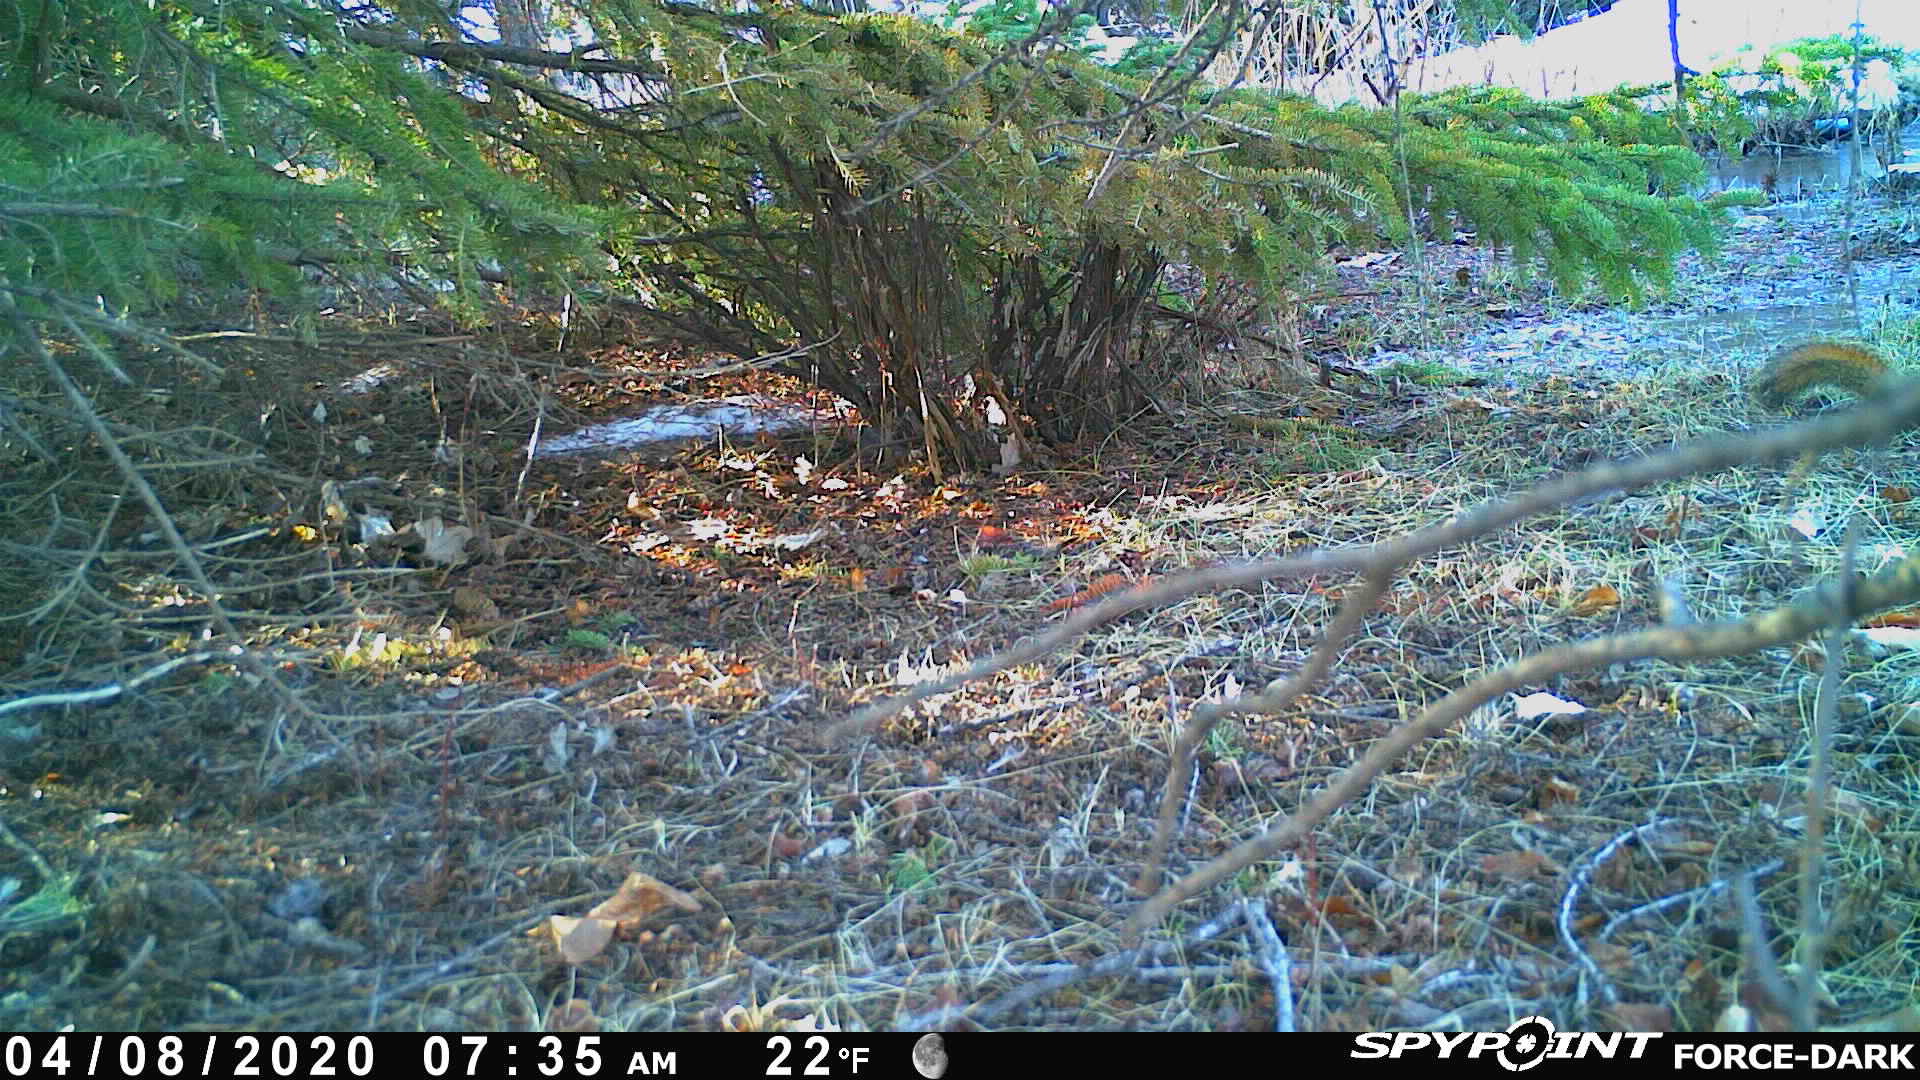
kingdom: Animalia
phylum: Chordata
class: Mammalia
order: Rodentia
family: Sciuridae
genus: Tamiasciurus
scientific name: Tamiasciurus hudsonicus
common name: Red squirrel
